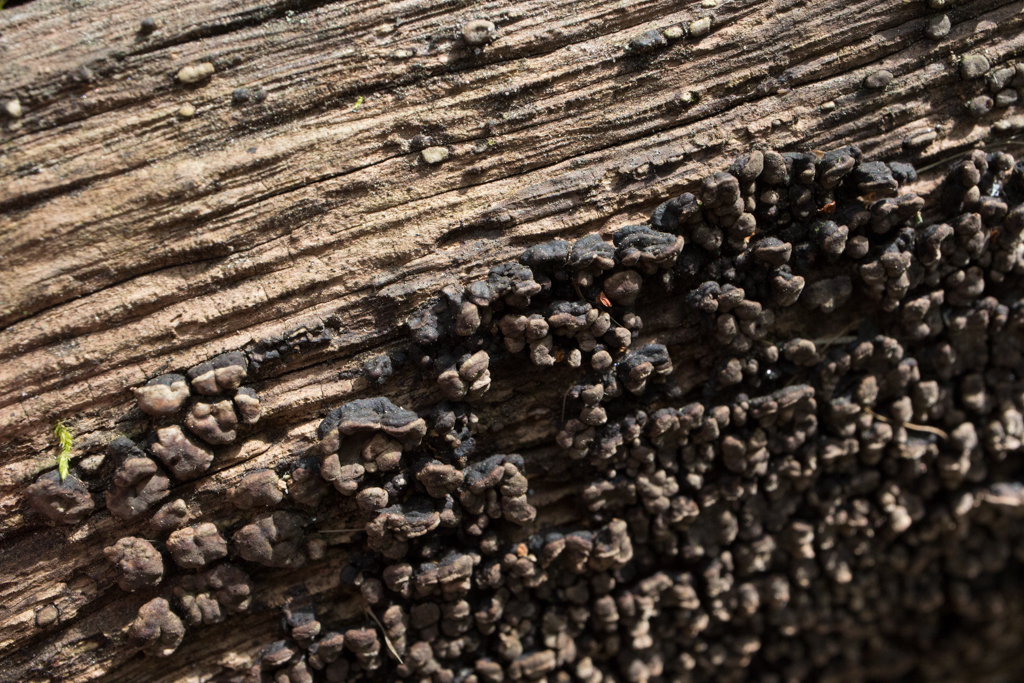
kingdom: Fungi
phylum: Basidiomycota
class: Agaricomycetes
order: Russulales
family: Stereaceae
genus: Xylobolus
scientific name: Xylobolus frustulatus
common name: Ceramic parchment
